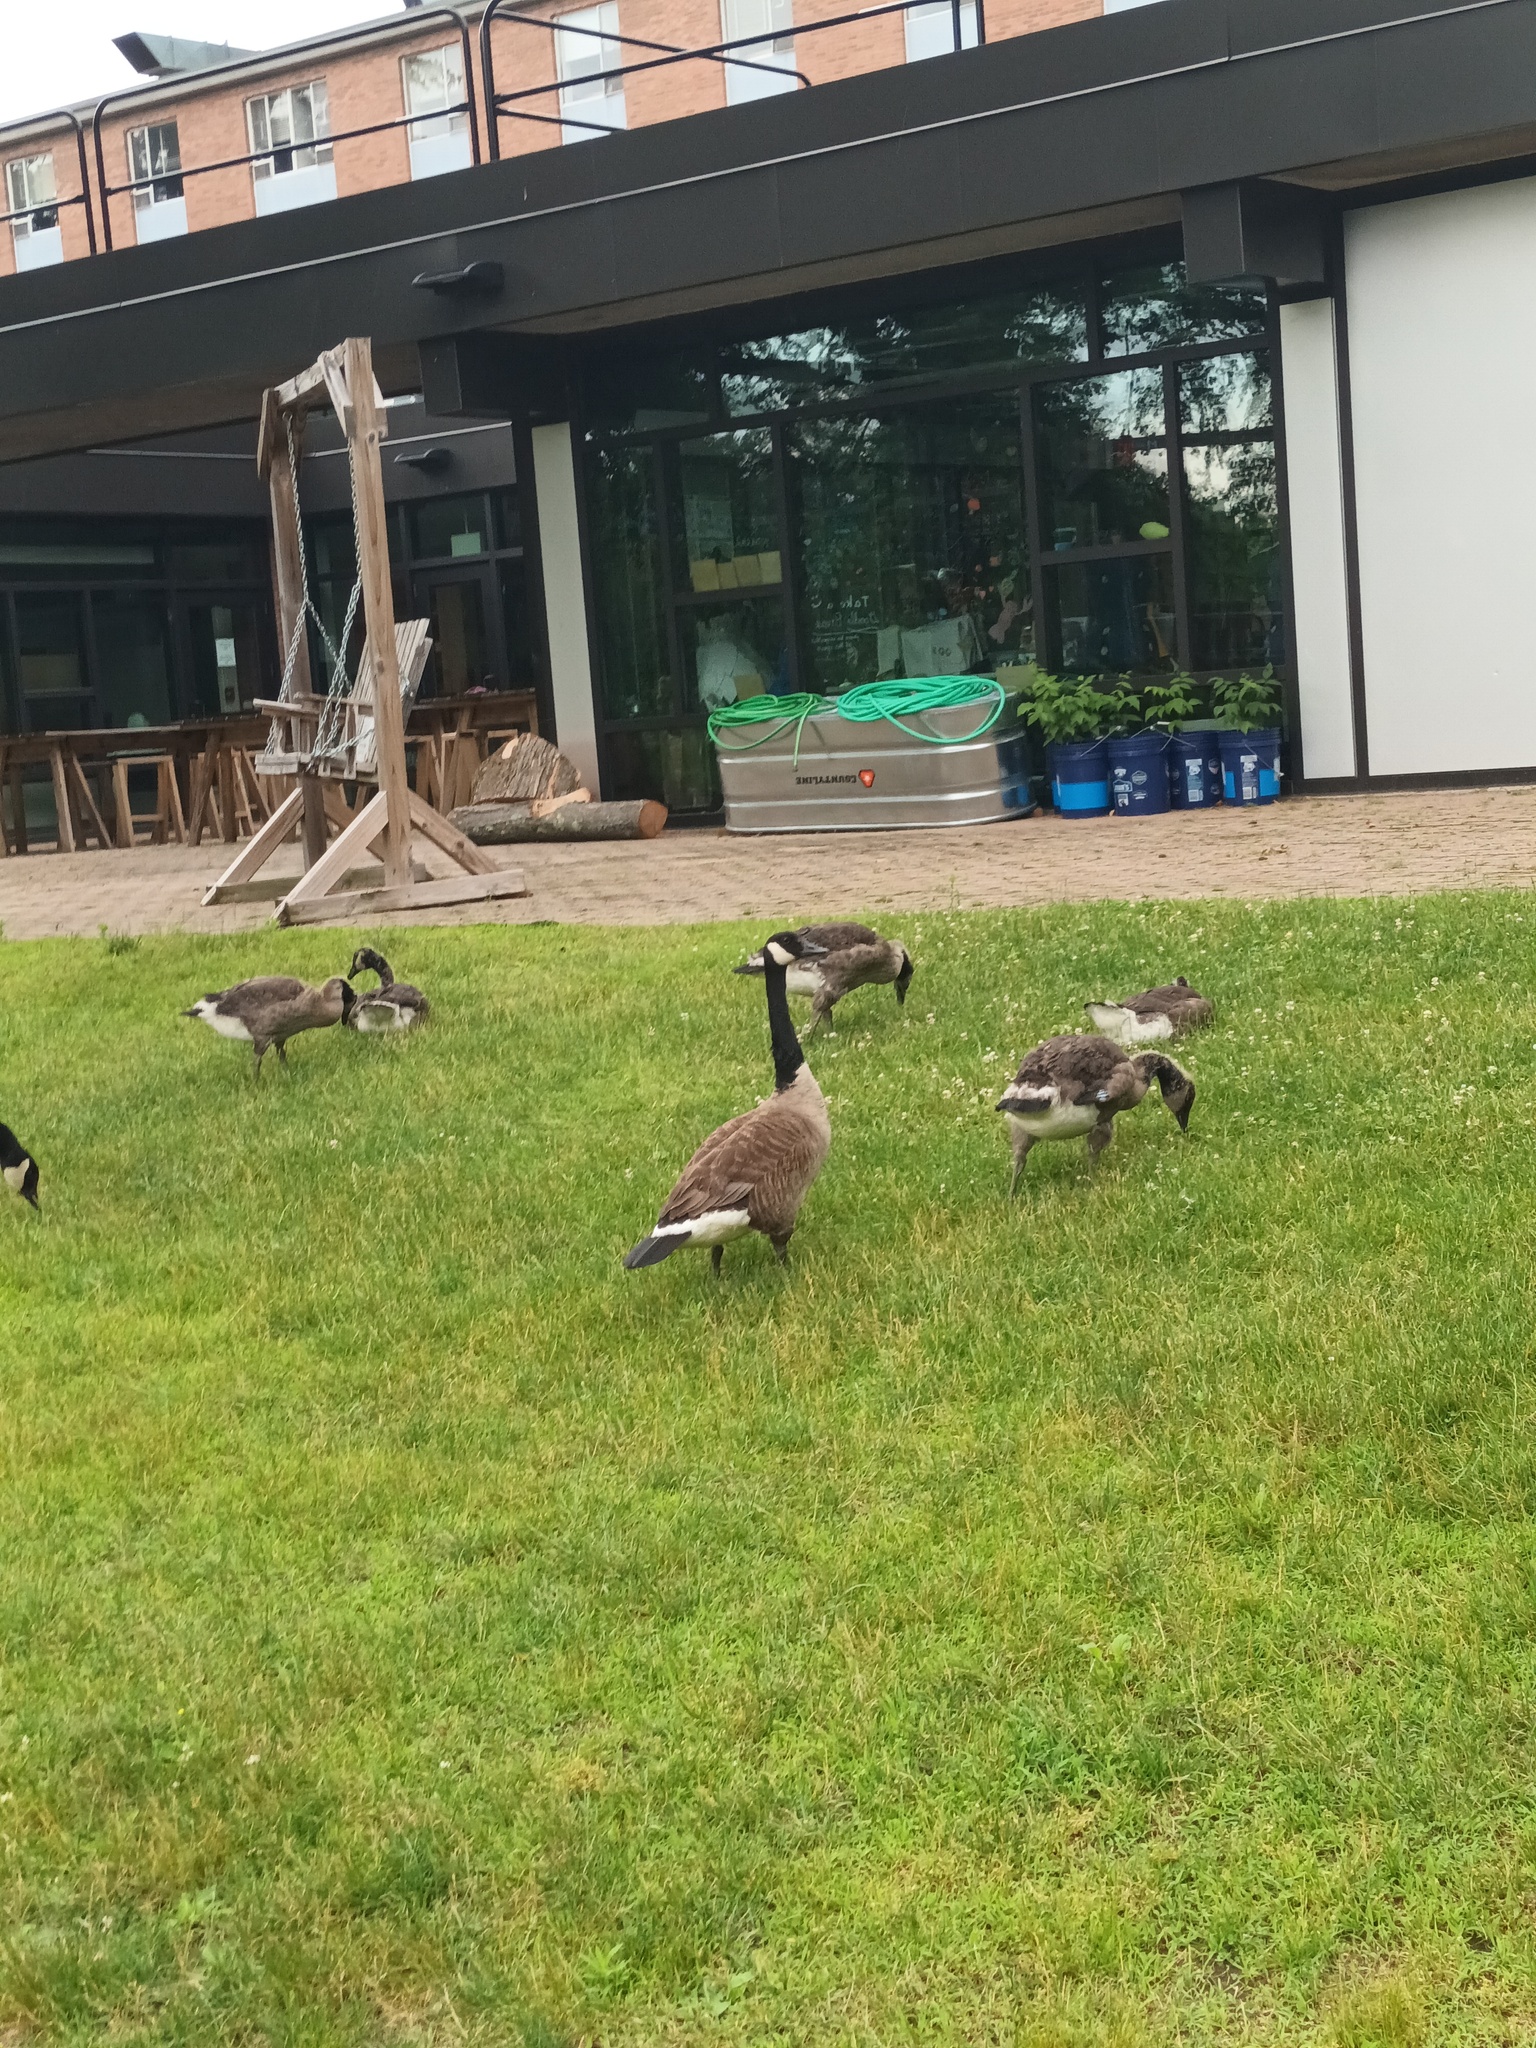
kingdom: Animalia
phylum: Chordata
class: Aves
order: Anseriformes
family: Anatidae
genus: Branta
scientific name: Branta canadensis
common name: Canada goose
